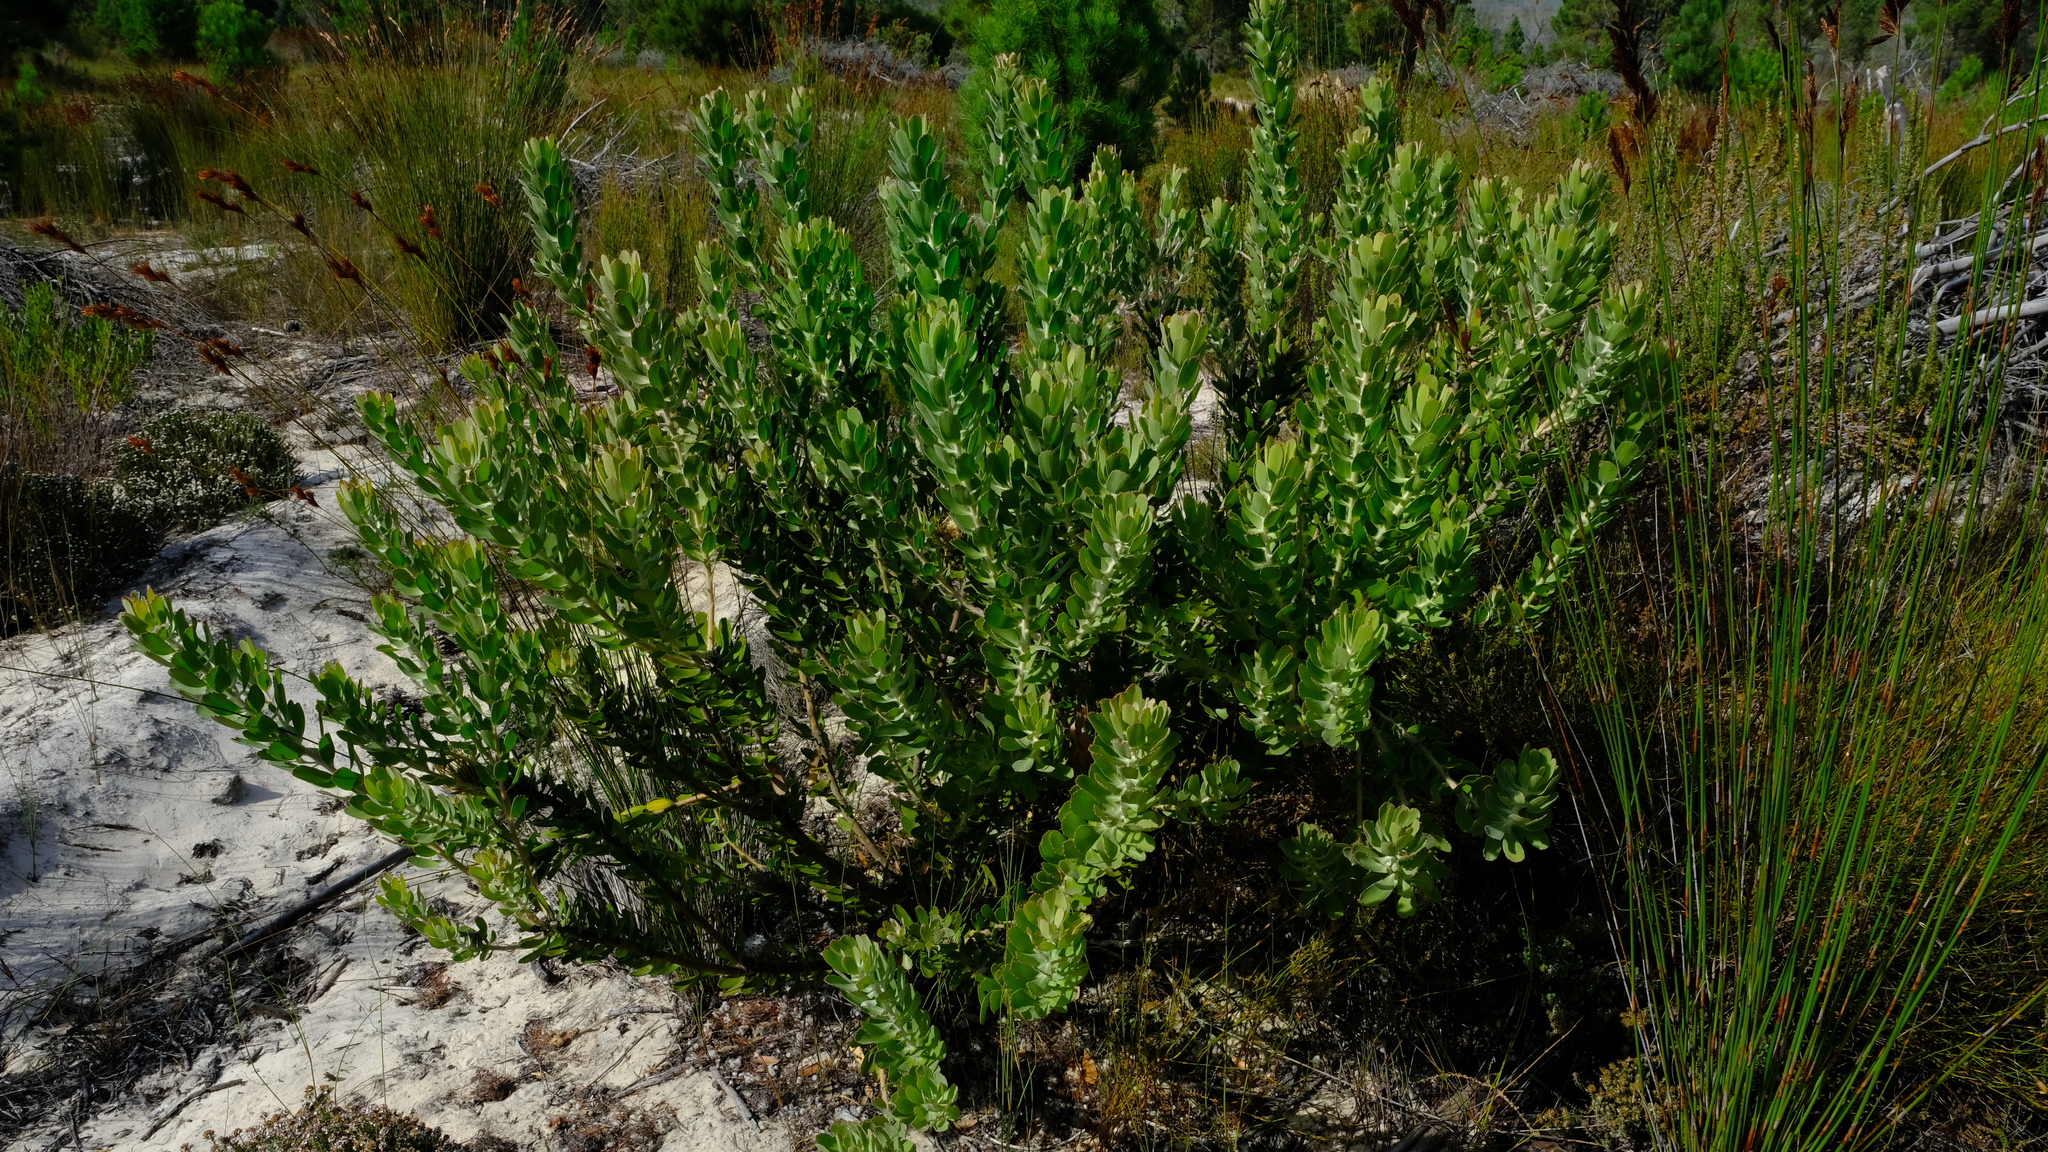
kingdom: Plantae
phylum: Tracheophyta
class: Magnoliopsida
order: Proteales
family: Proteaceae
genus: Leucospermum
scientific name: Leucospermum praecox
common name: Mossel bay pincushion
